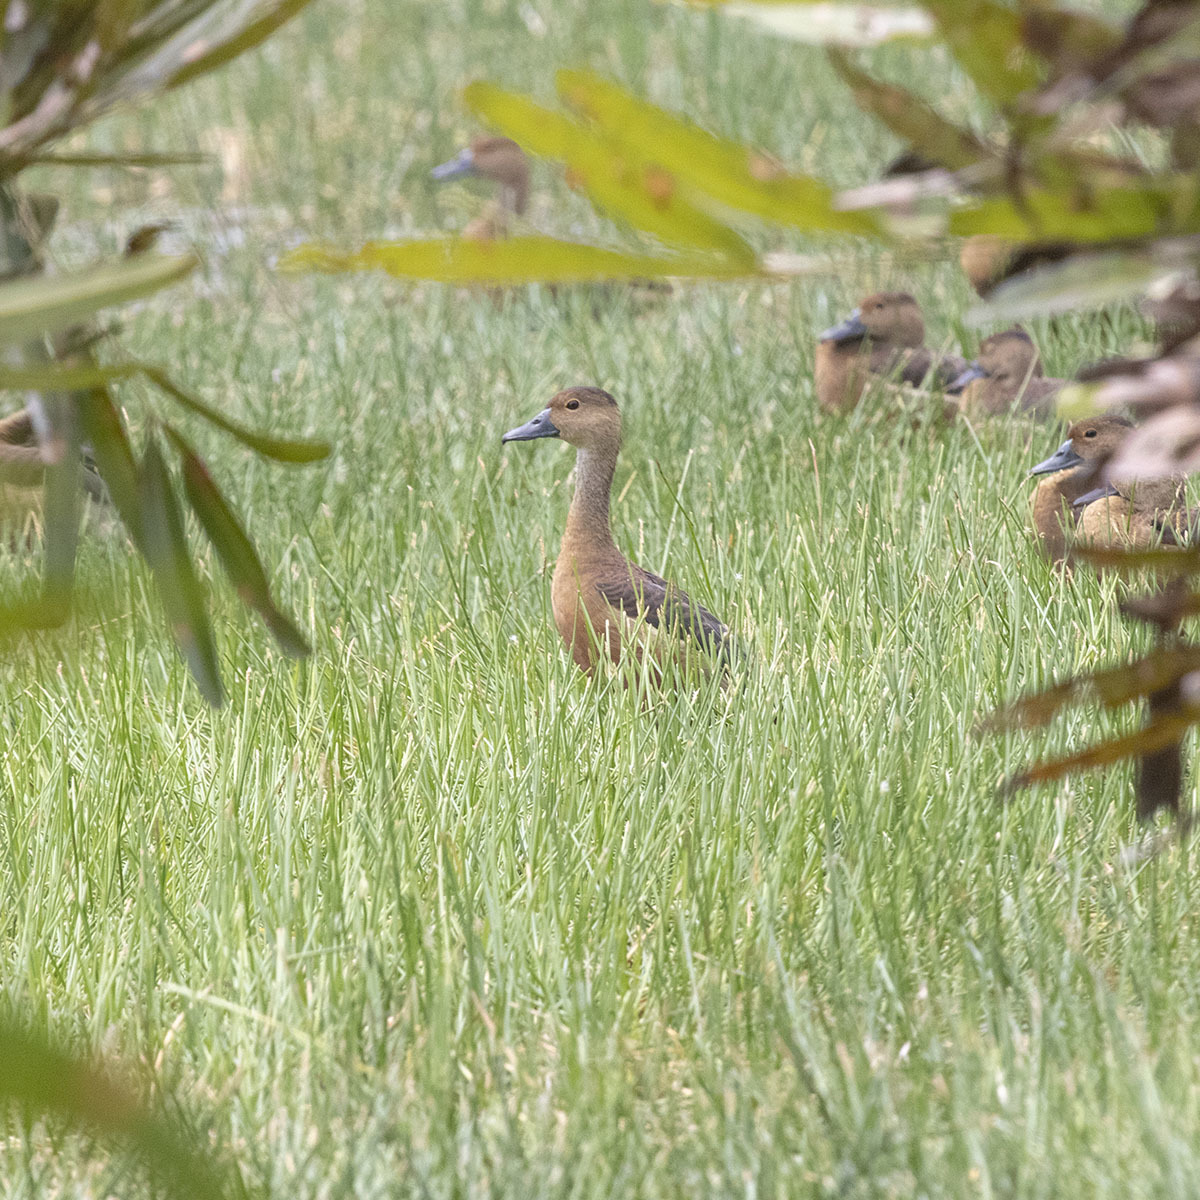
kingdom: Animalia
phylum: Chordata
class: Aves
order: Anseriformes
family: Anatidae
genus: Dendrocygna
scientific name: Dendrocygna javanica
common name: Lesser whistling-duck
